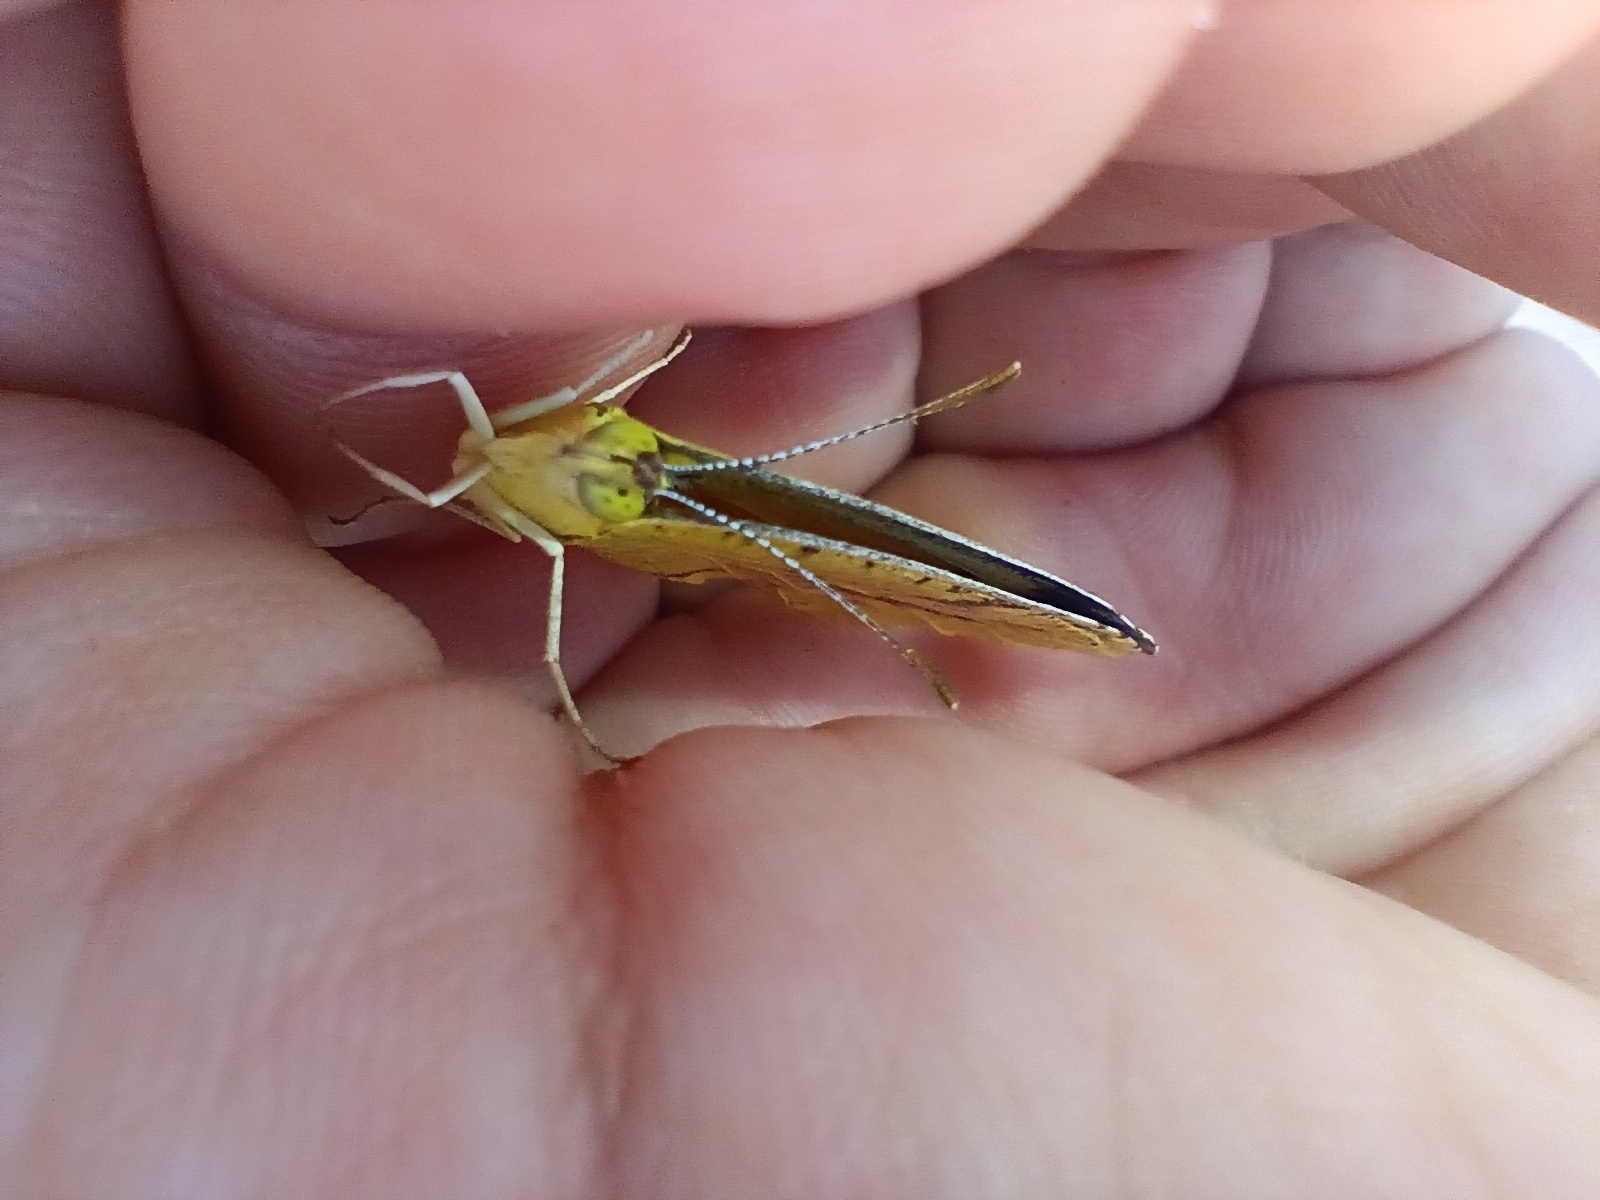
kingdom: Animalia
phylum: Arthropoda
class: Insecta
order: Lepidoptera
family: Pieridae
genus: Abaeis
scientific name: Abaeis nicippe
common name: Sleepy orange
